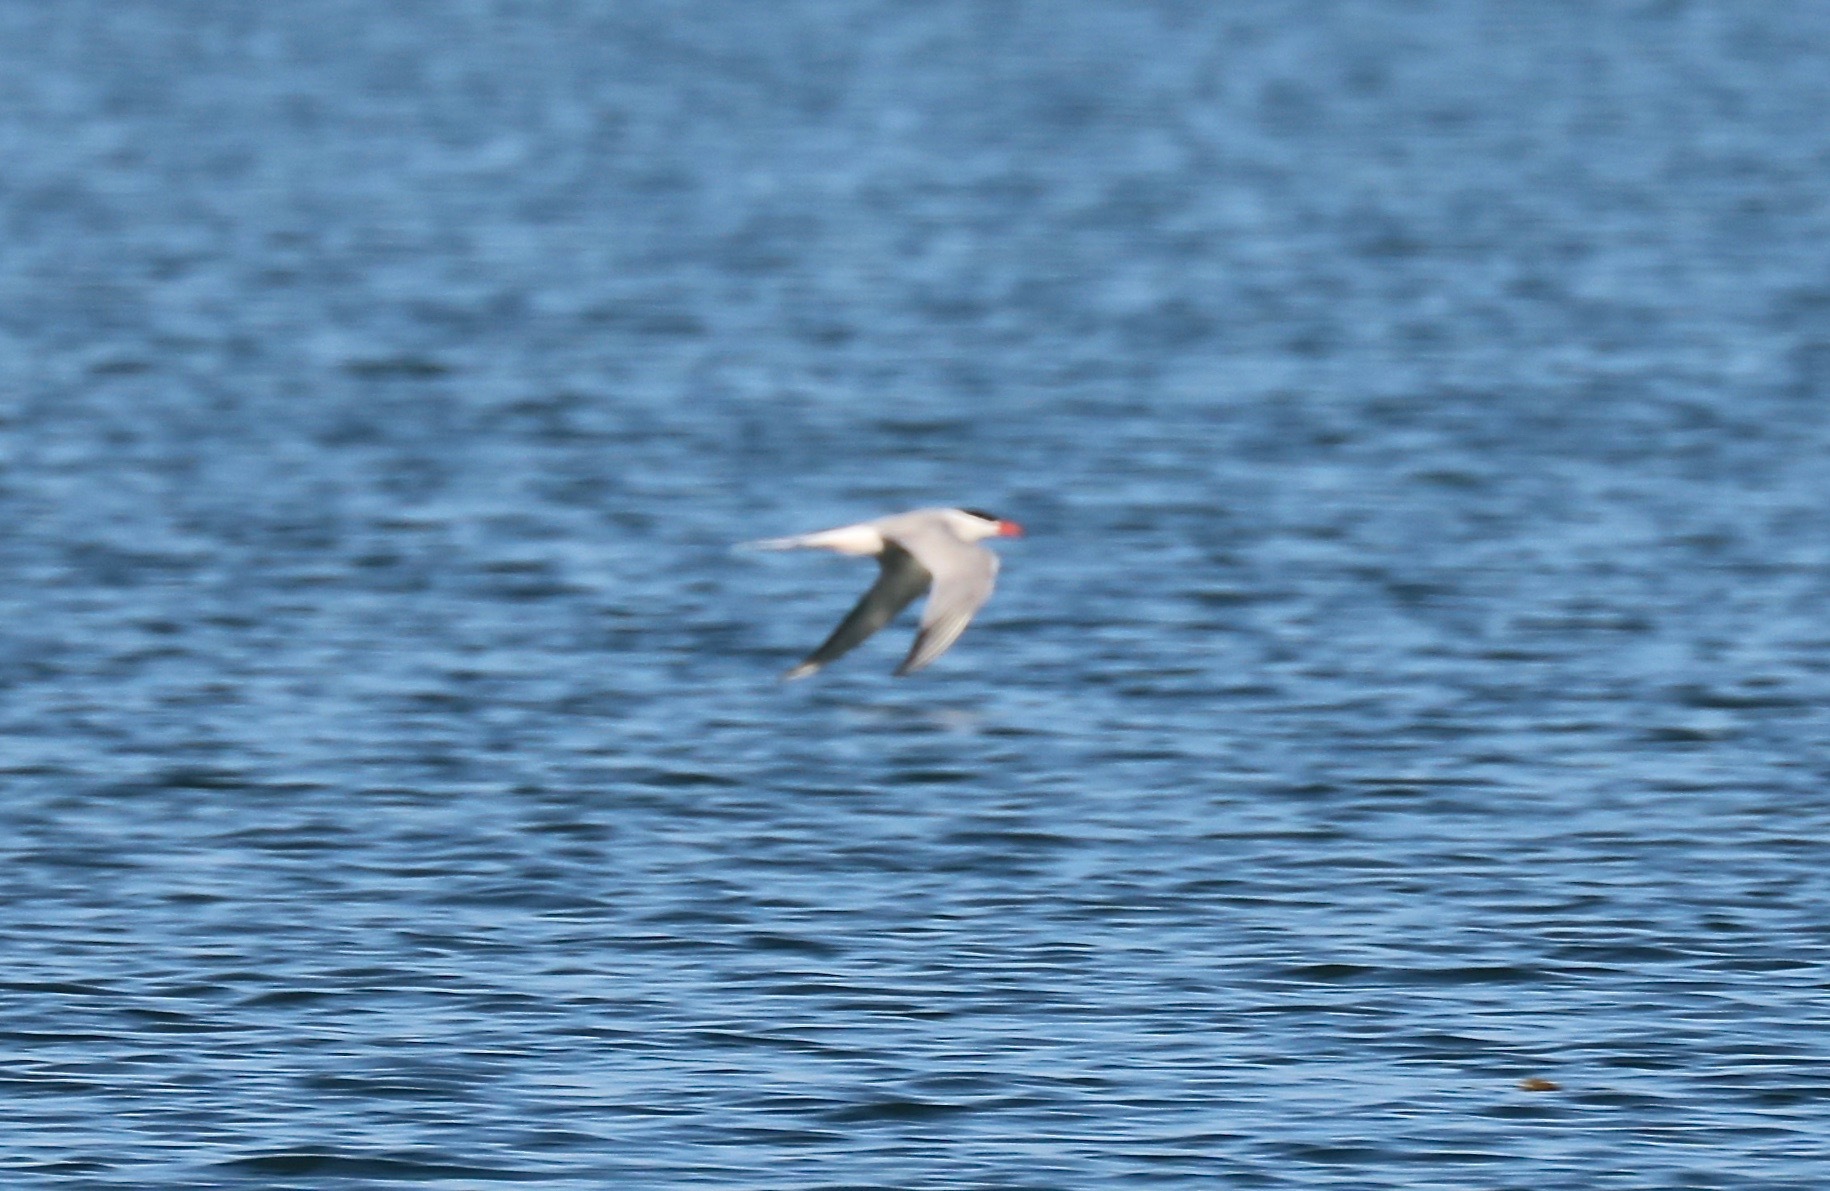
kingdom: Animalia
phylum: Chordata
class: Aves
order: Charadriiformes
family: Laridae
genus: Sterna
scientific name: Sterna hirundo
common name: Common tern
